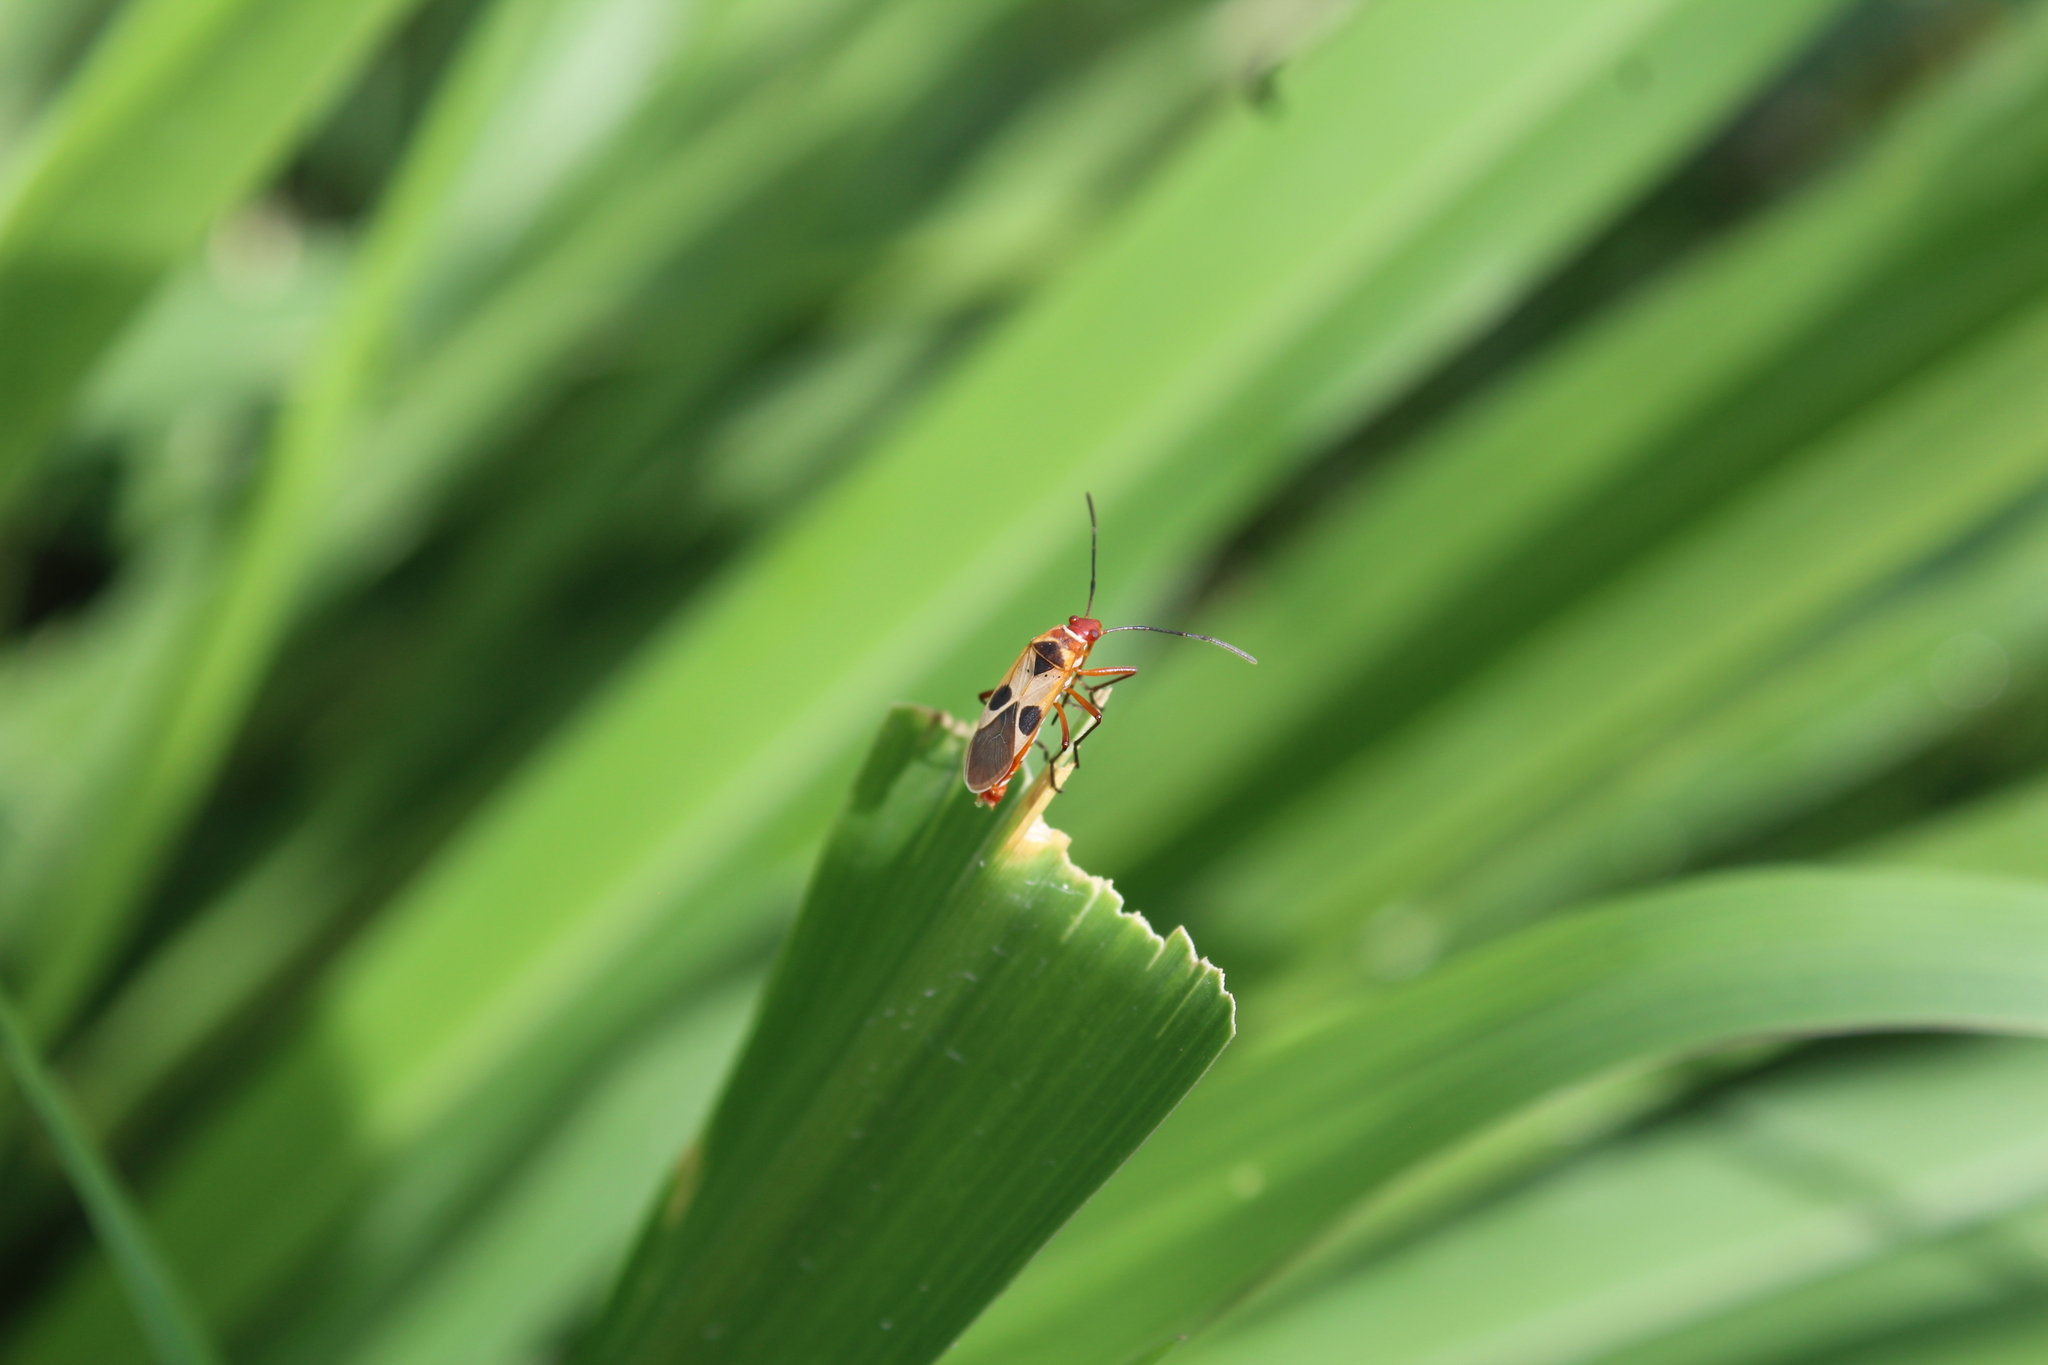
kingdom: Animalia
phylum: Arthropoda
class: Insecta
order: Hemiptera
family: Pyrrhocoridae
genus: Dysdercus
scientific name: Dysdercus concinnus
